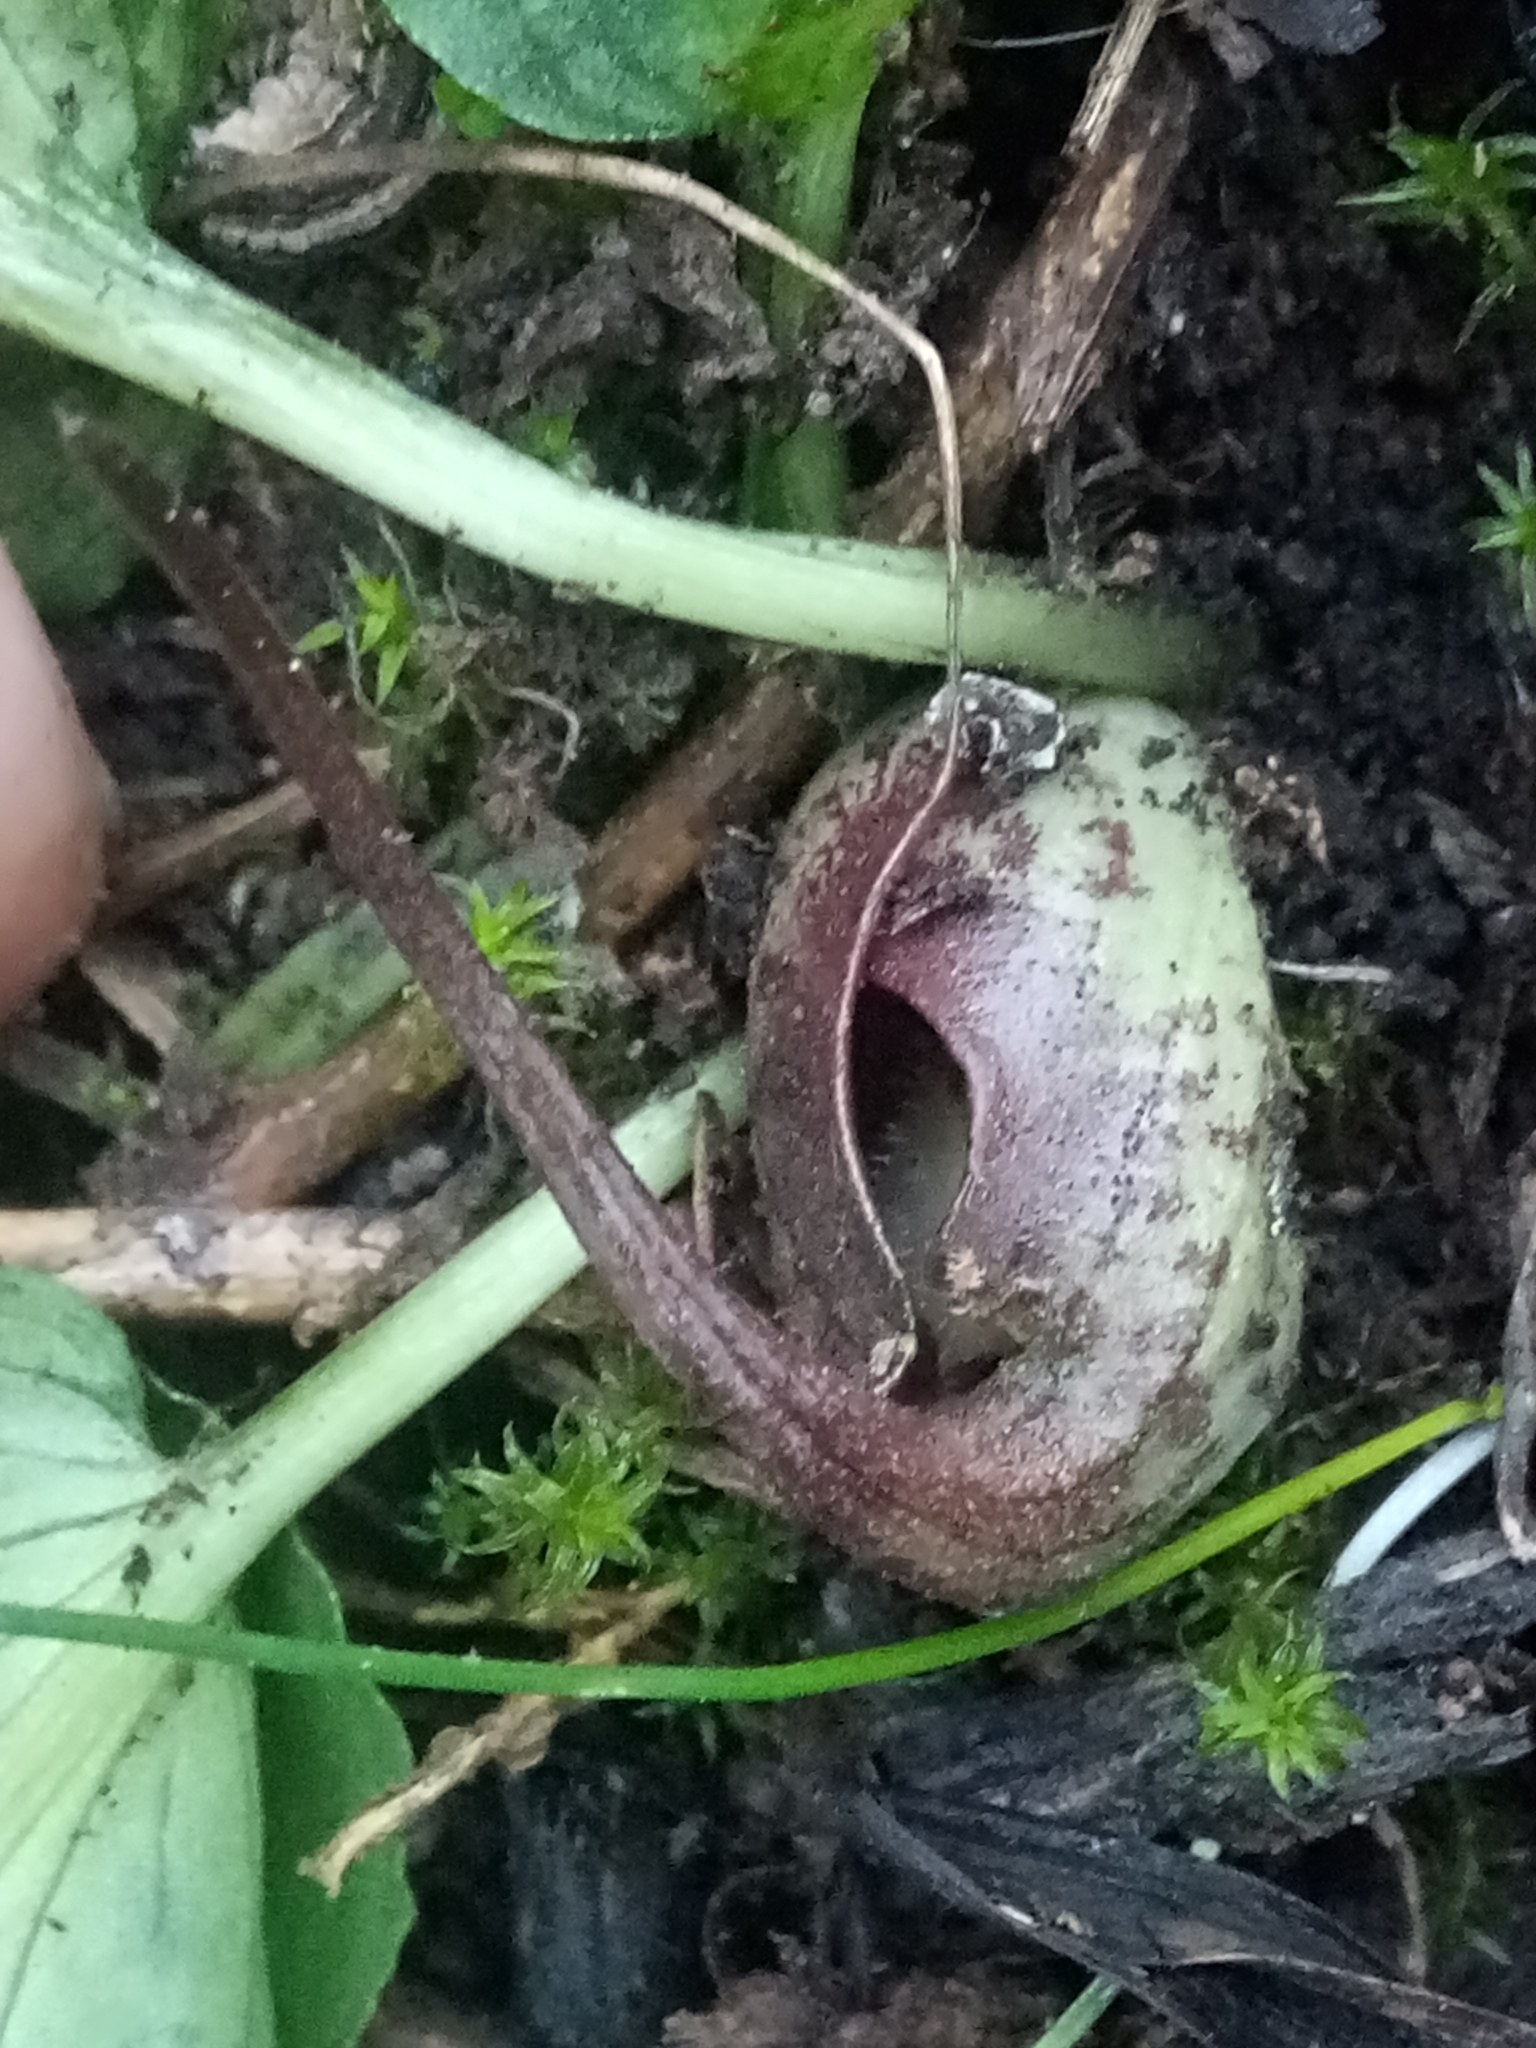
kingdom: Plantae
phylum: Tracheophyta
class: Liliopsida
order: Alismatales
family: Araceae
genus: Ambrosina
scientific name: Ambrosina bassii
